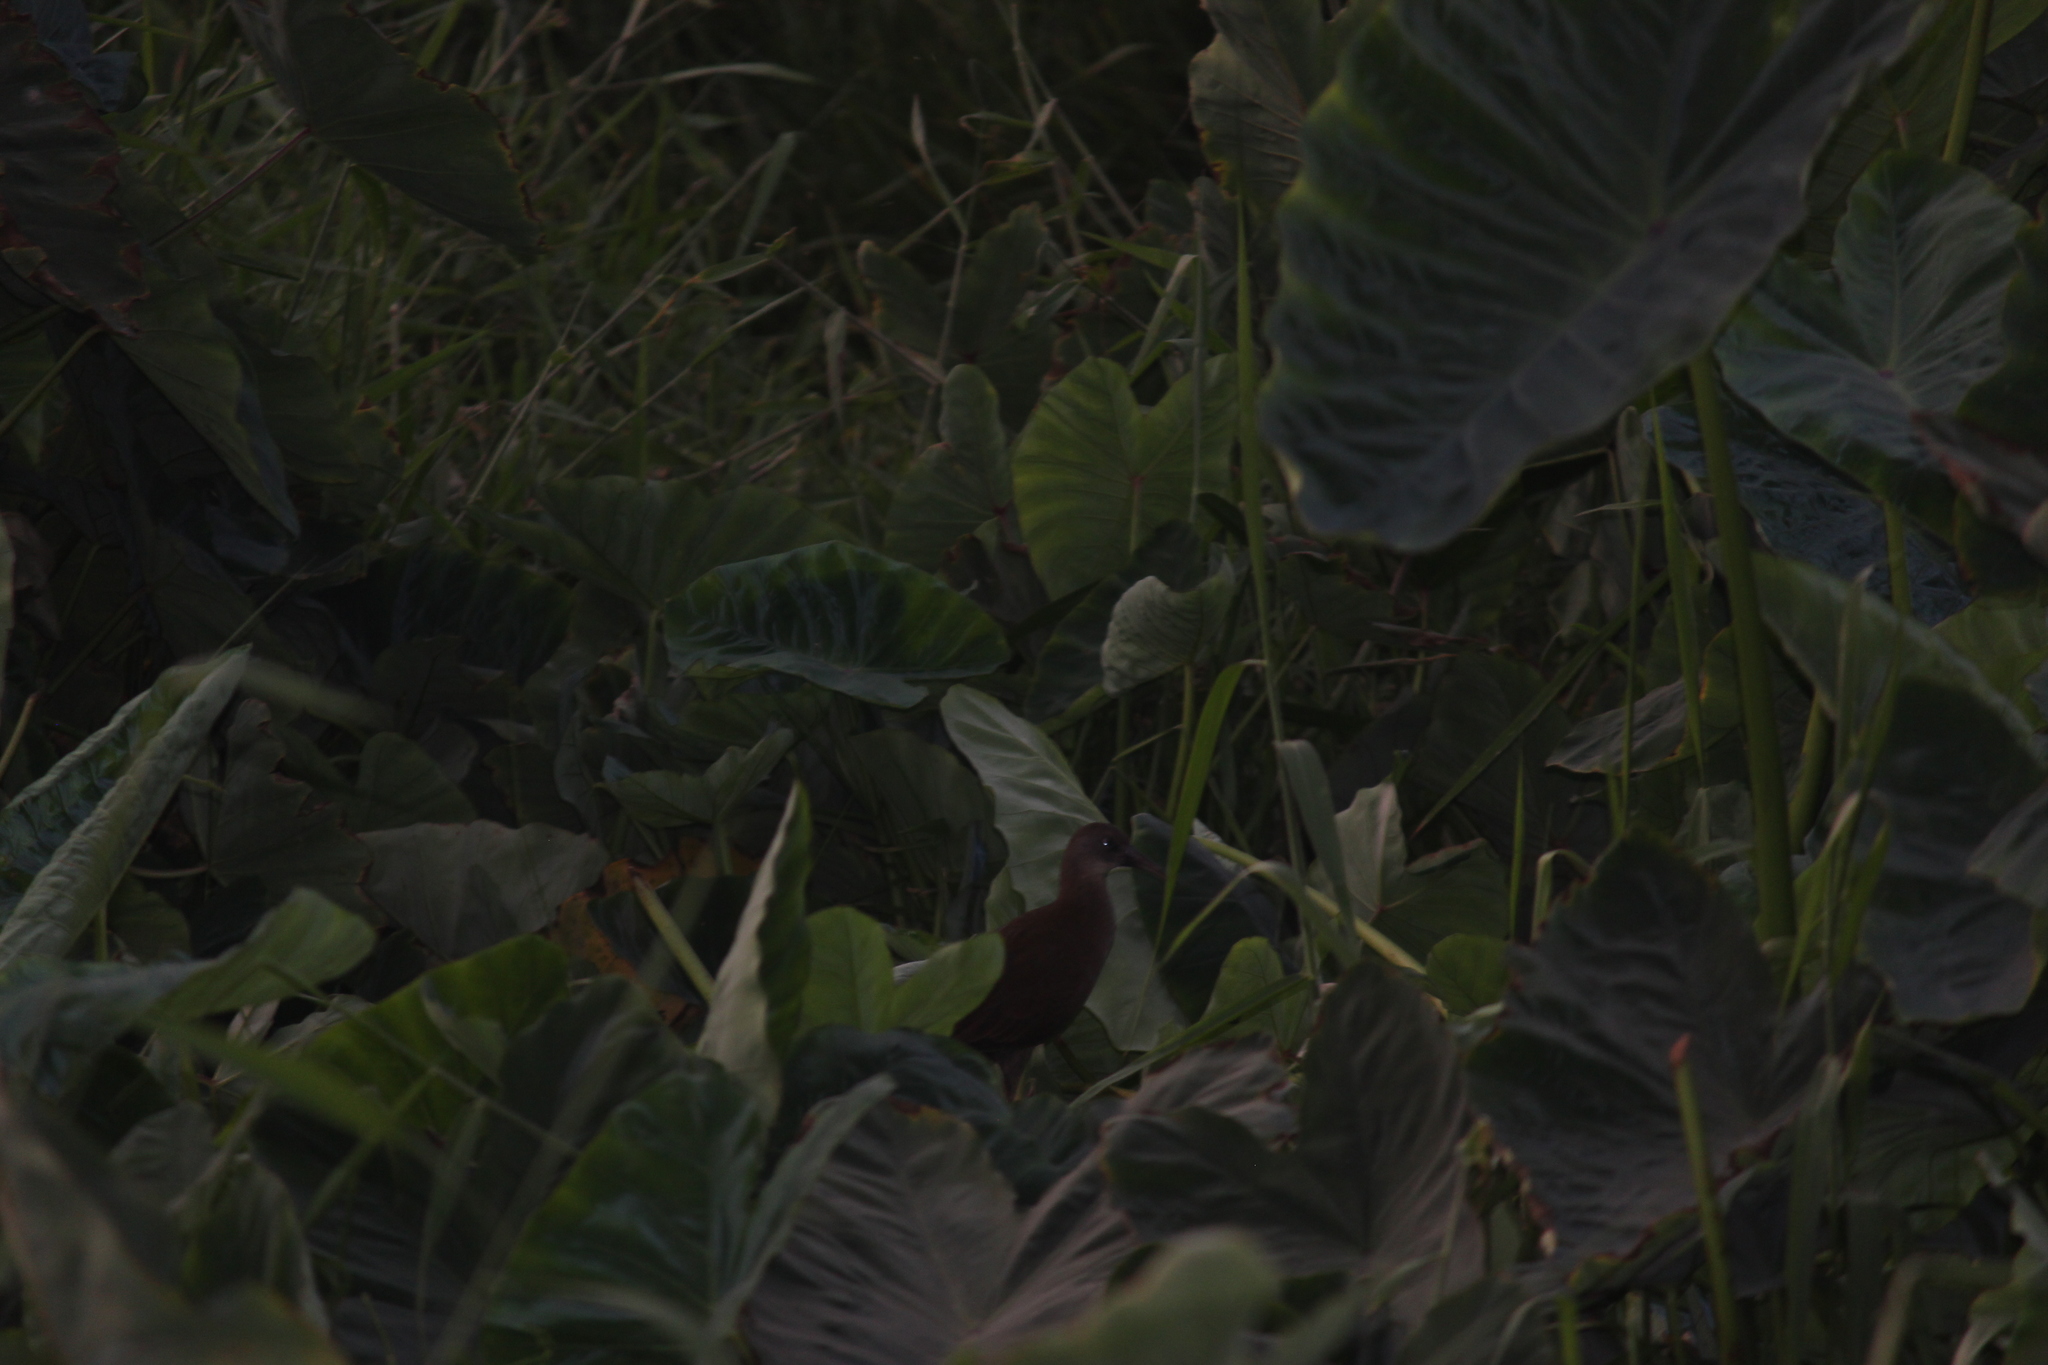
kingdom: Animalia
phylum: Chordata
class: Aves
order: Gruiformes
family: Rallidae
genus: Pardirallus
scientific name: Pardirallus sanguinolentus
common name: Plumbeous rail
